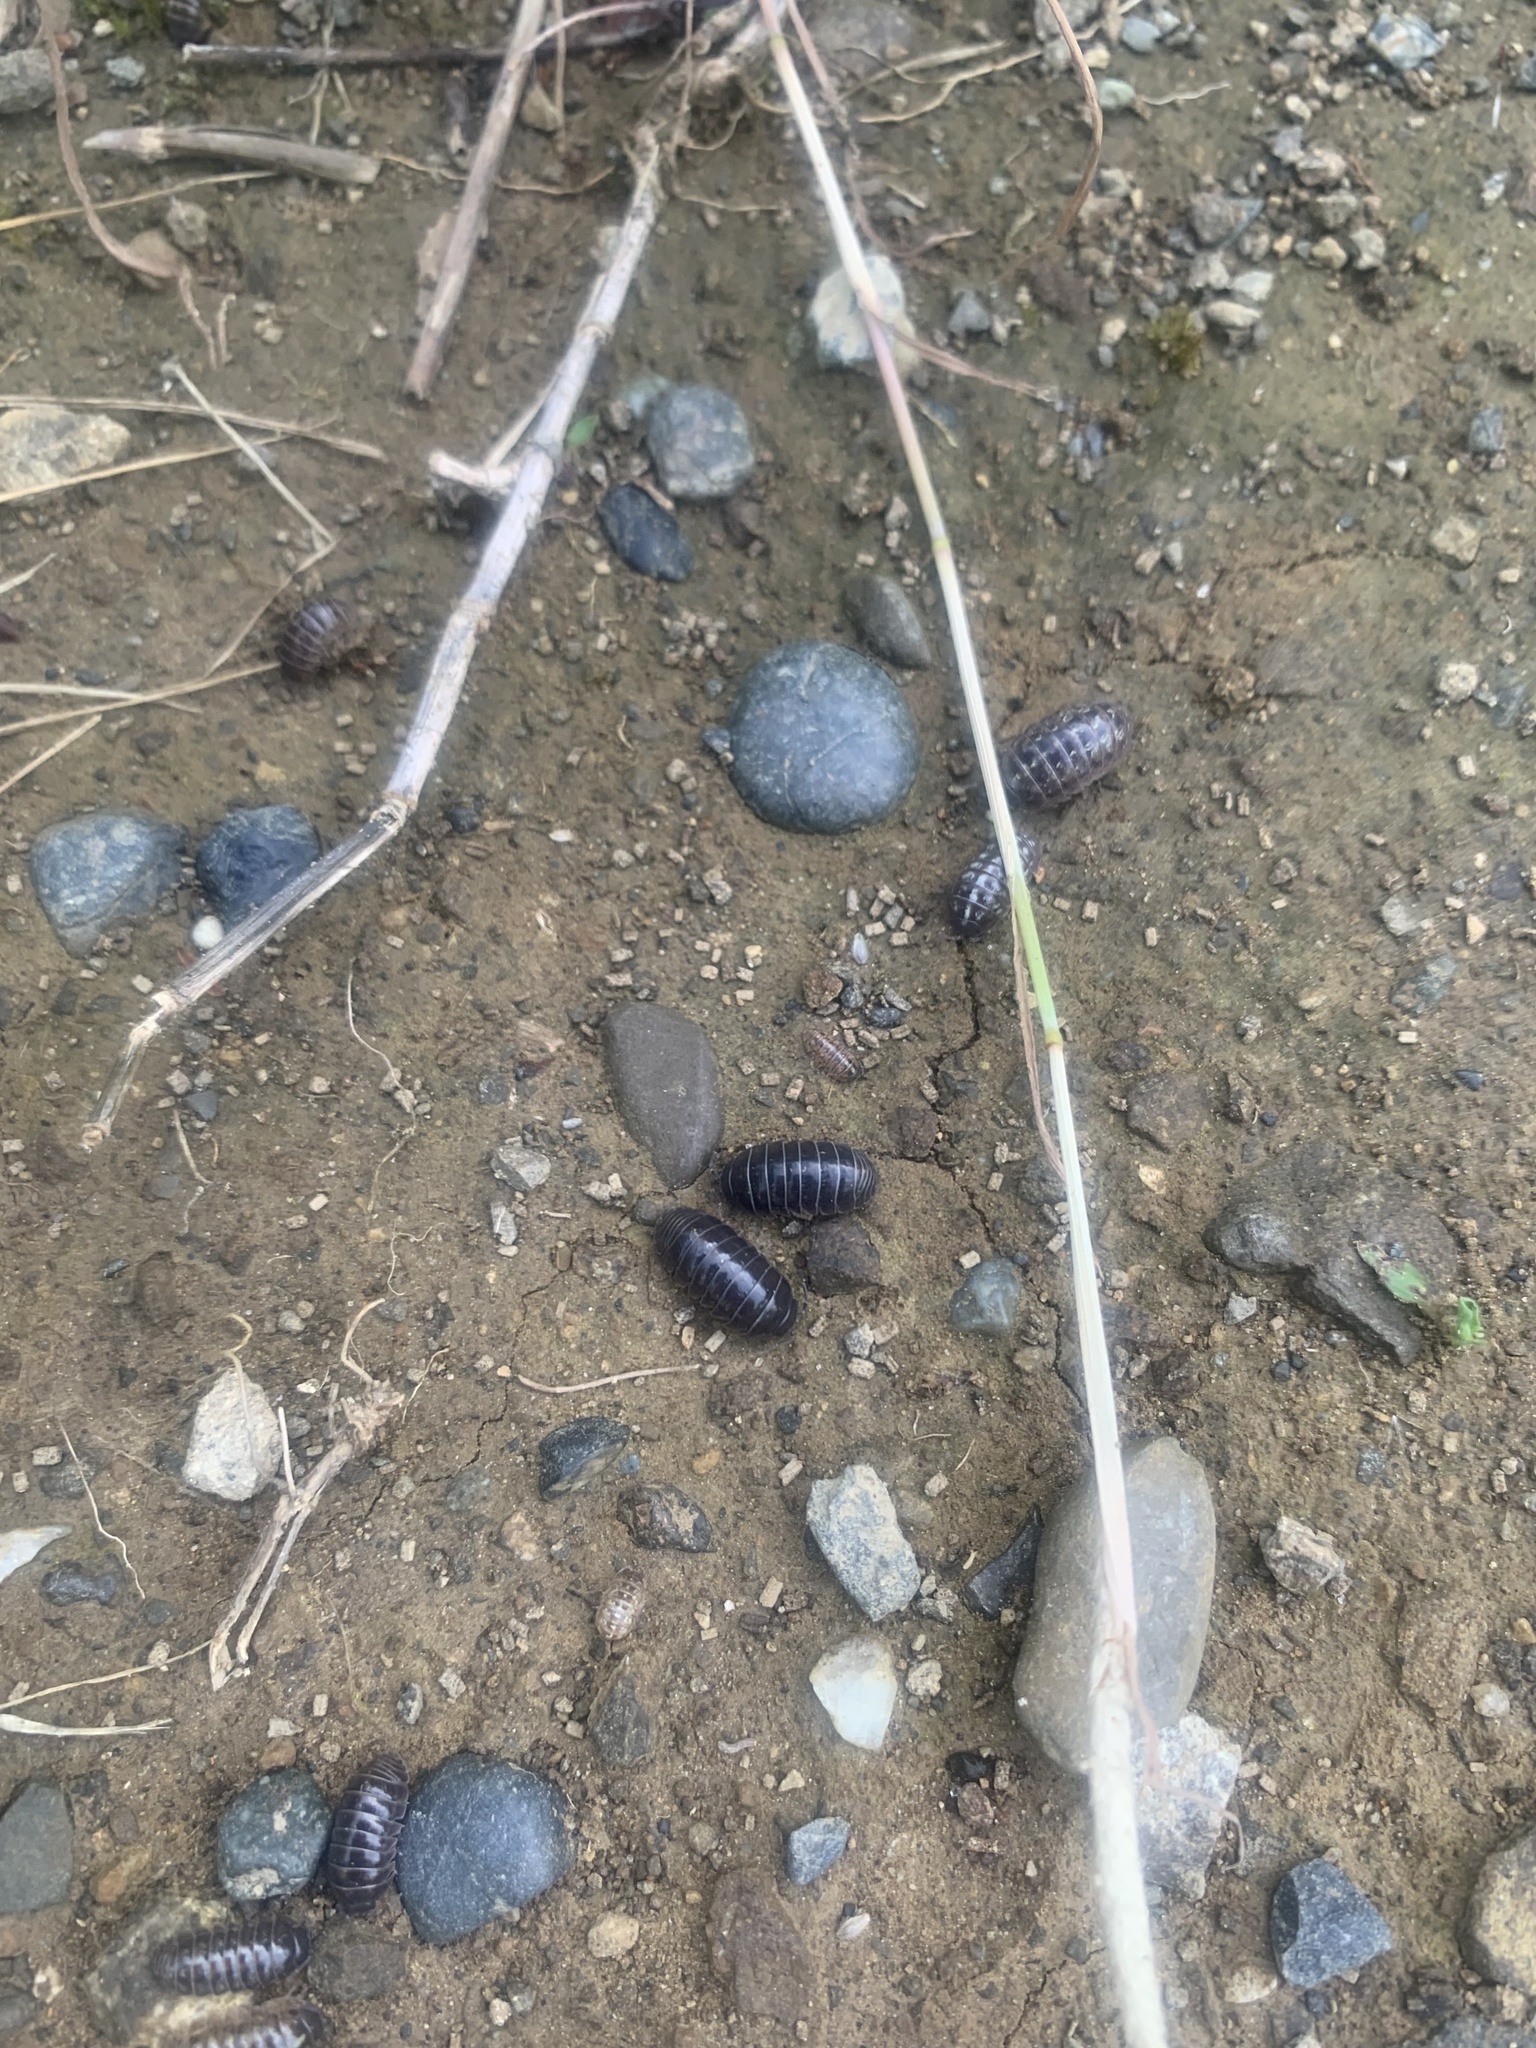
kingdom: Animalia
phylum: Arthropoda
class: Malacostraca
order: Isopoda
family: Armadillidiidae
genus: Armadillidium
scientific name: Armadillidium vulgare
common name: Common pill woodlouse
